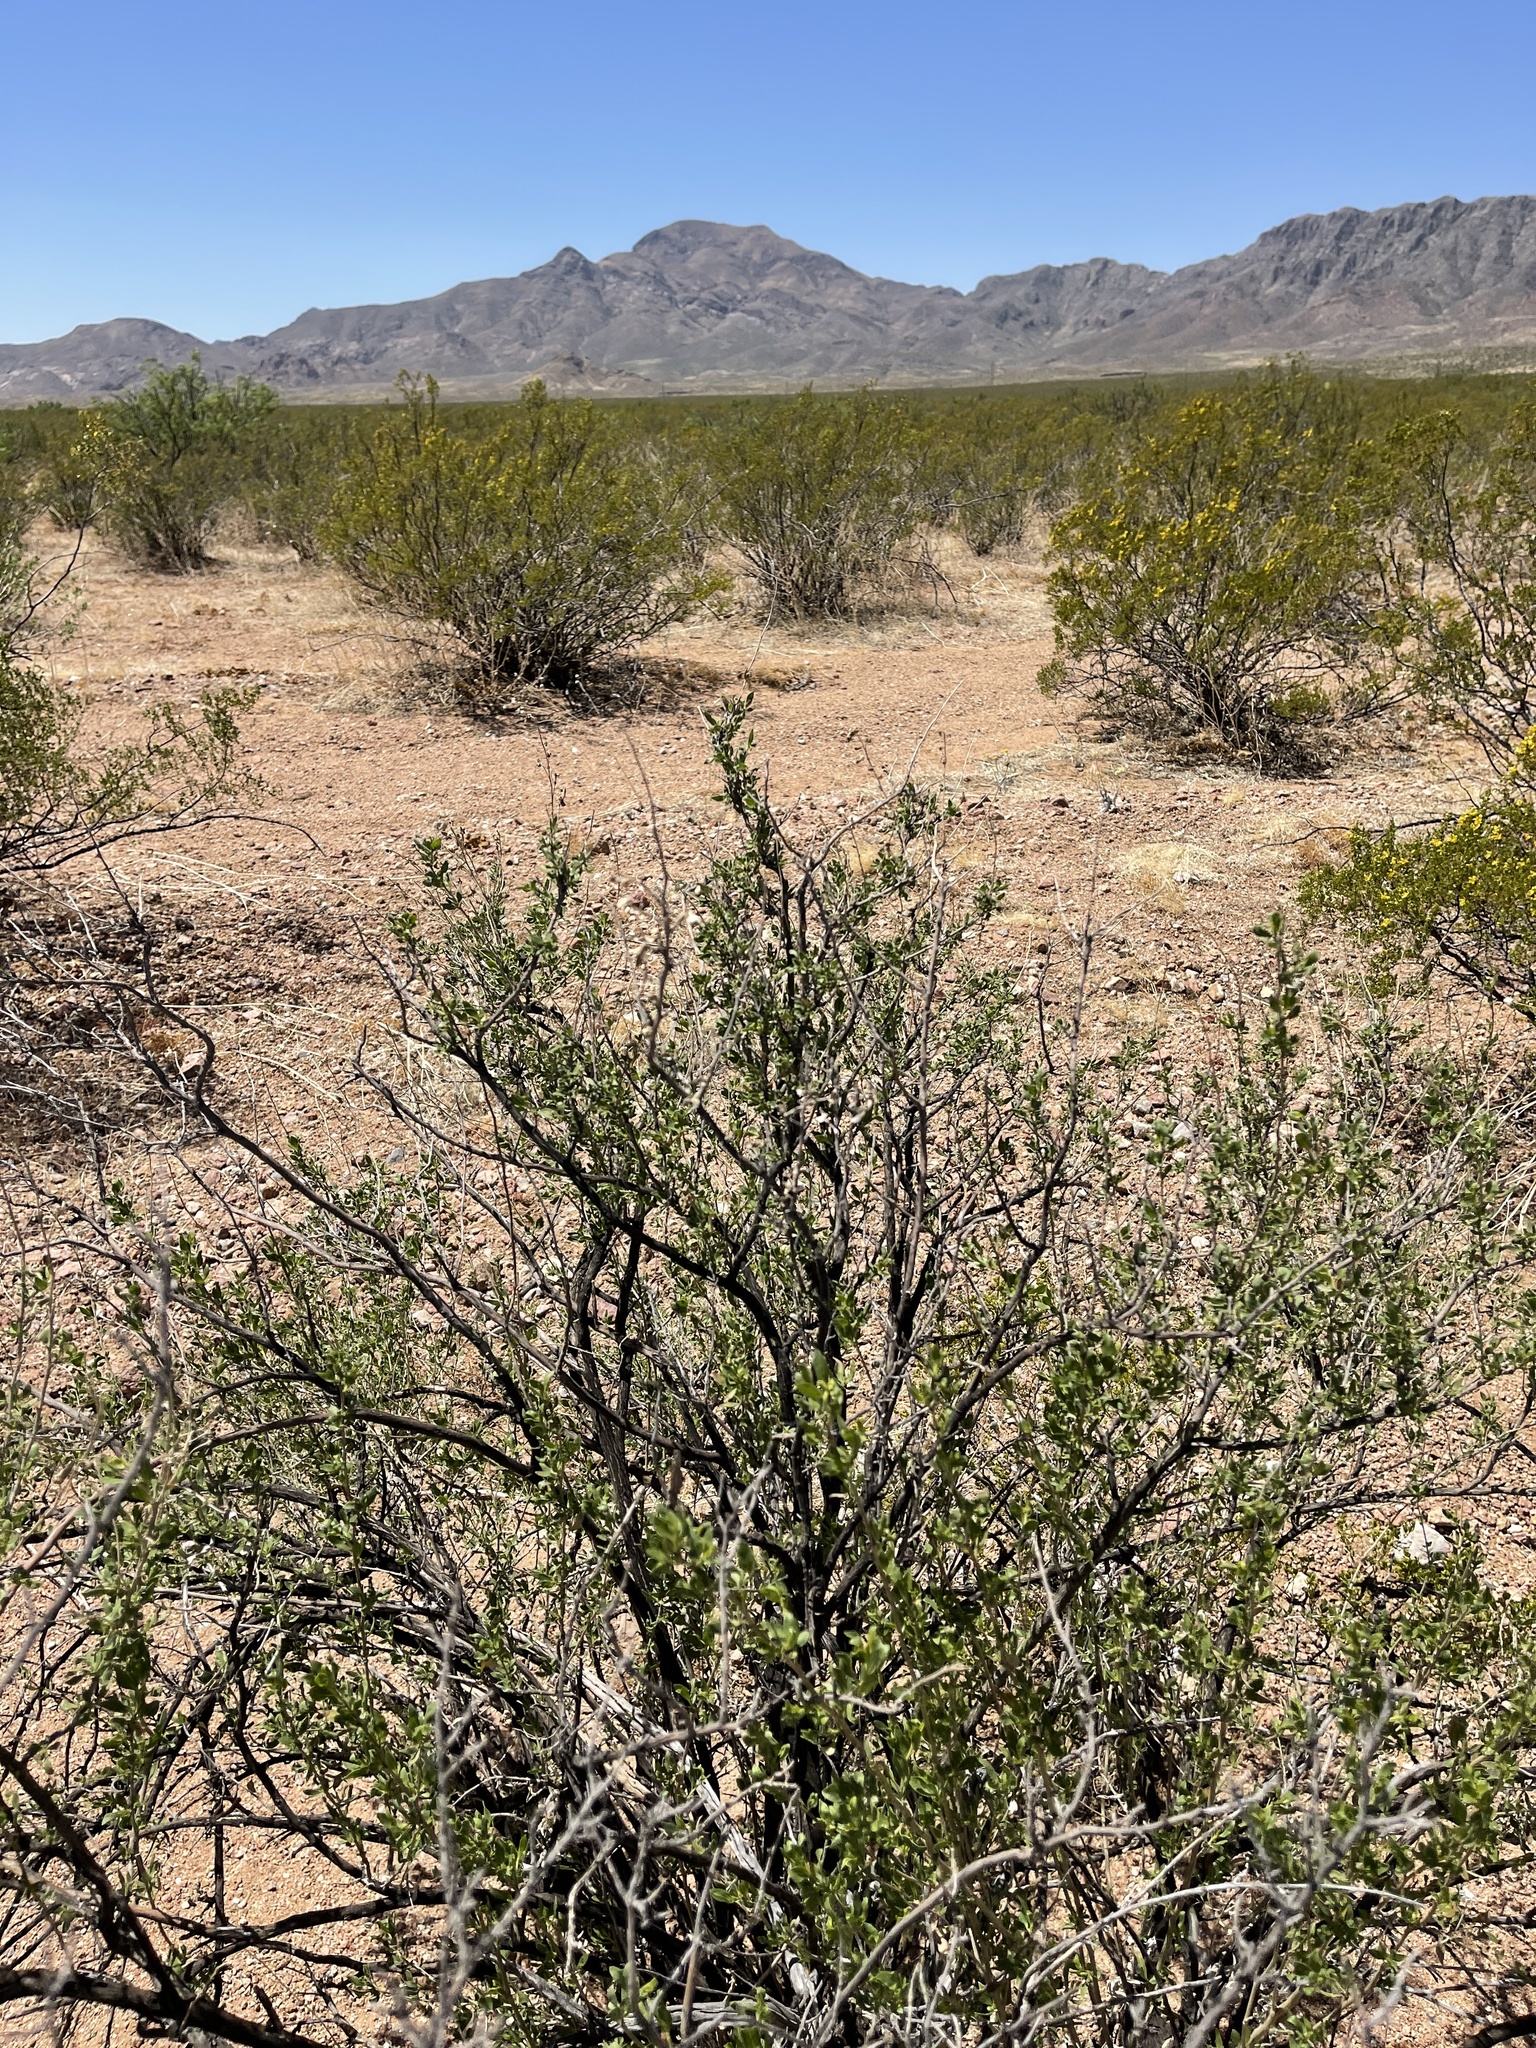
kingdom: Plantae
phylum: Tracheophyta
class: Magnoliopsida
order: Asterales
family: Asteraceae
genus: Flourensia
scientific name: Flourensia cernua
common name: Varnishbush
